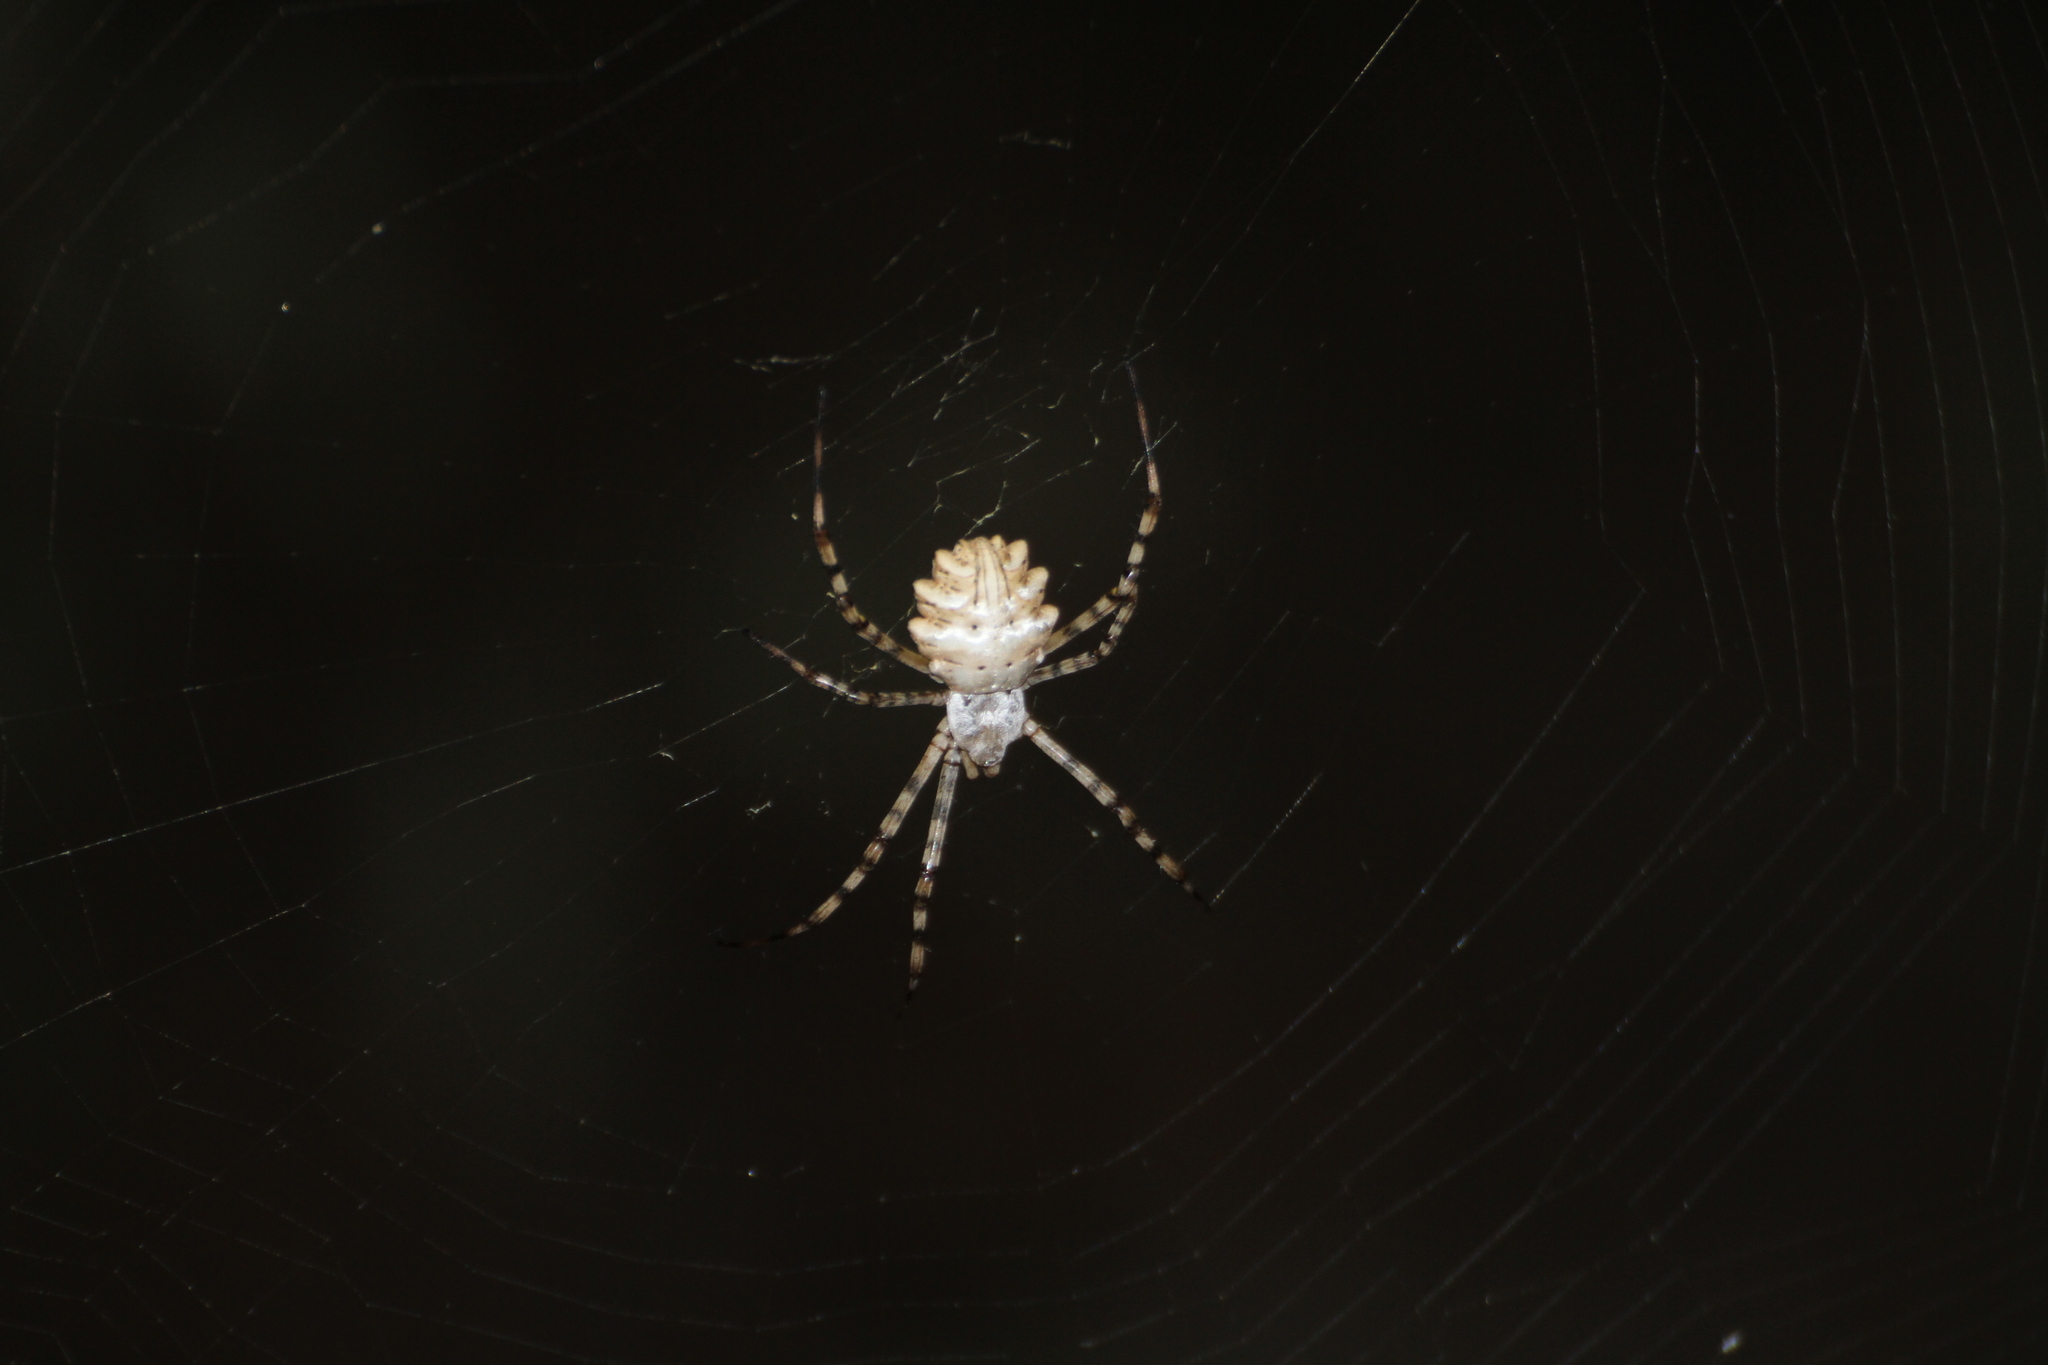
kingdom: Animalia
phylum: Arthropoda
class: Arachnida
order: Araneae
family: Araneidae
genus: Argiope
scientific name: Argiope lobata
